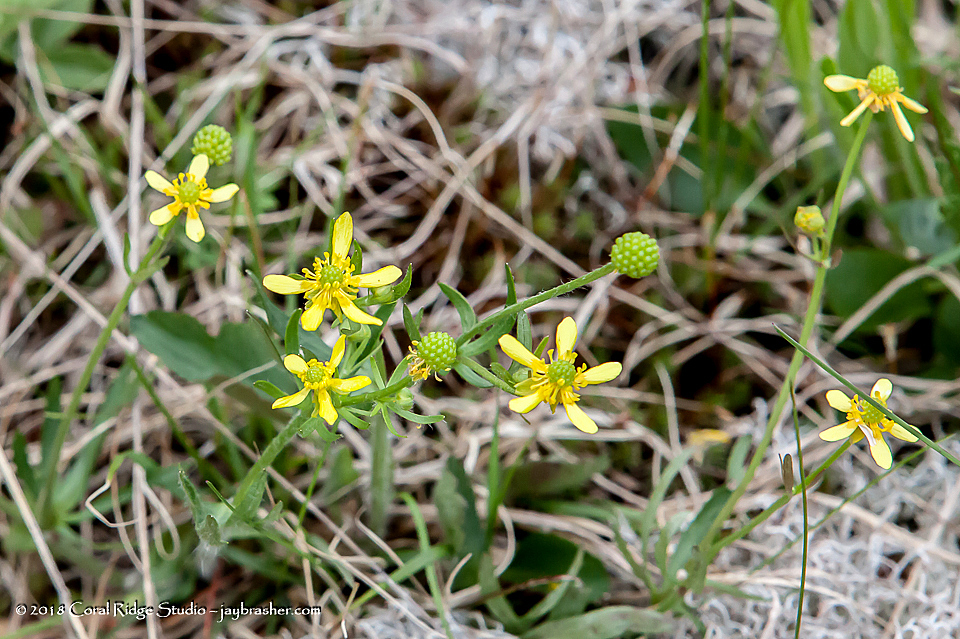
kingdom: Plantae
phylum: Tracheophyta
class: Magnoliopsida
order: Ranunculales
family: Ranunculaceae
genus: Ranunculus
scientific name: Ranunculus rhomboideus
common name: Prairie buttercup
